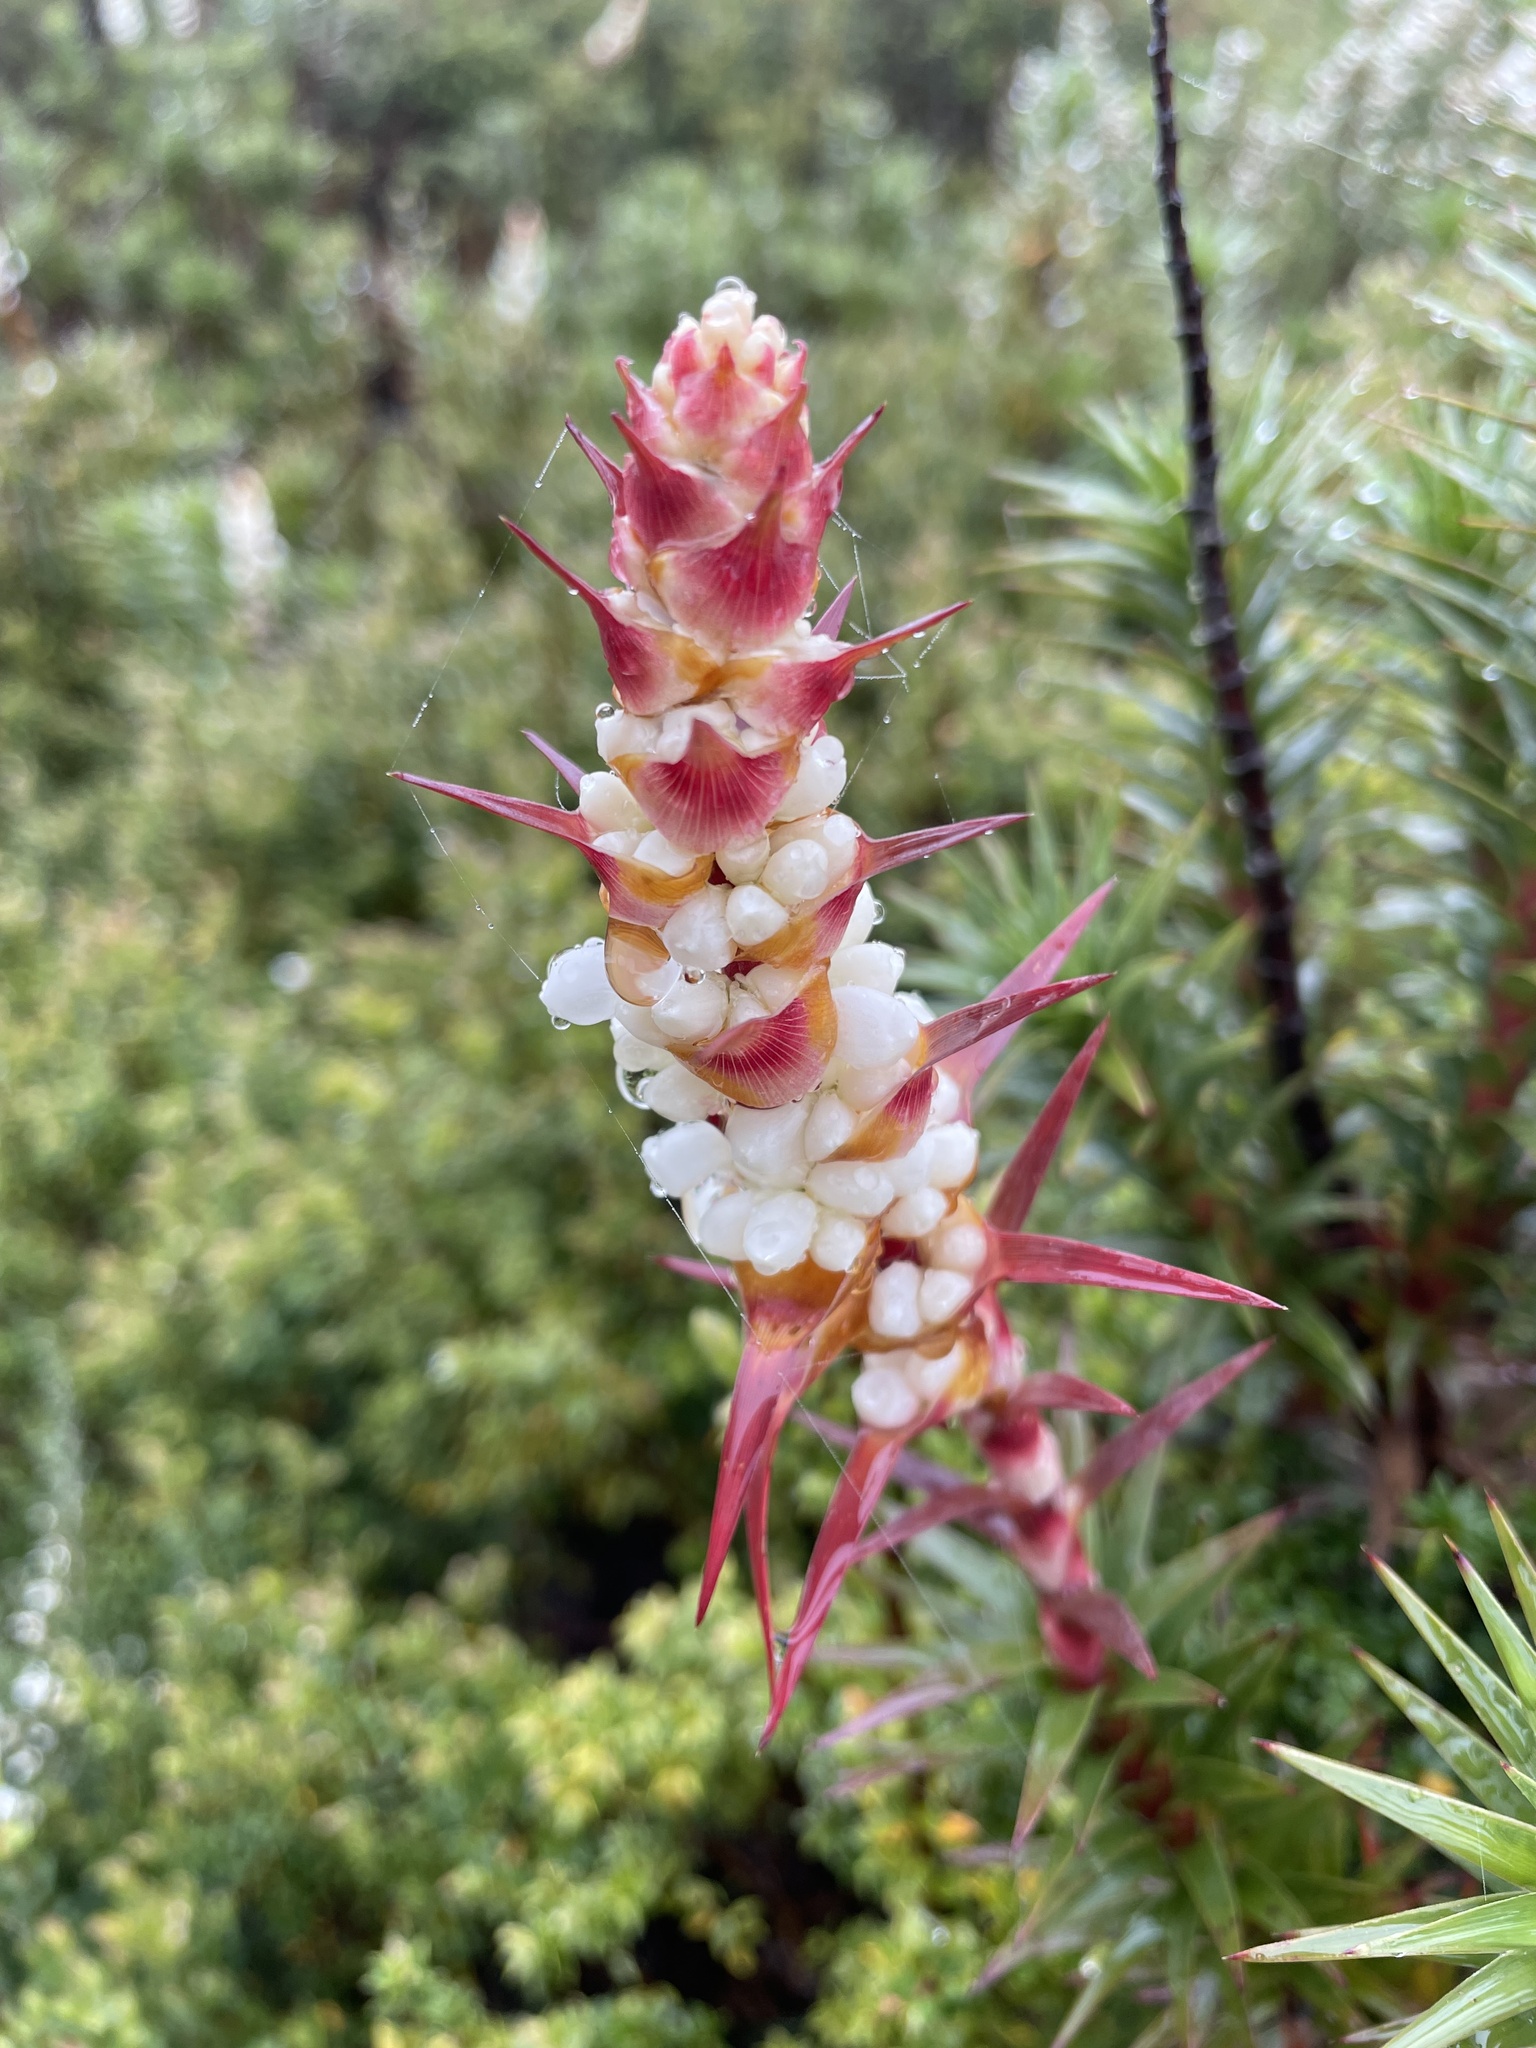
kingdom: Plantae
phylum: Tracheophyta
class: Magnoliopsida
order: Ericales
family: Ericaceae
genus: Dracophyllum
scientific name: Dracophyllum continentis
